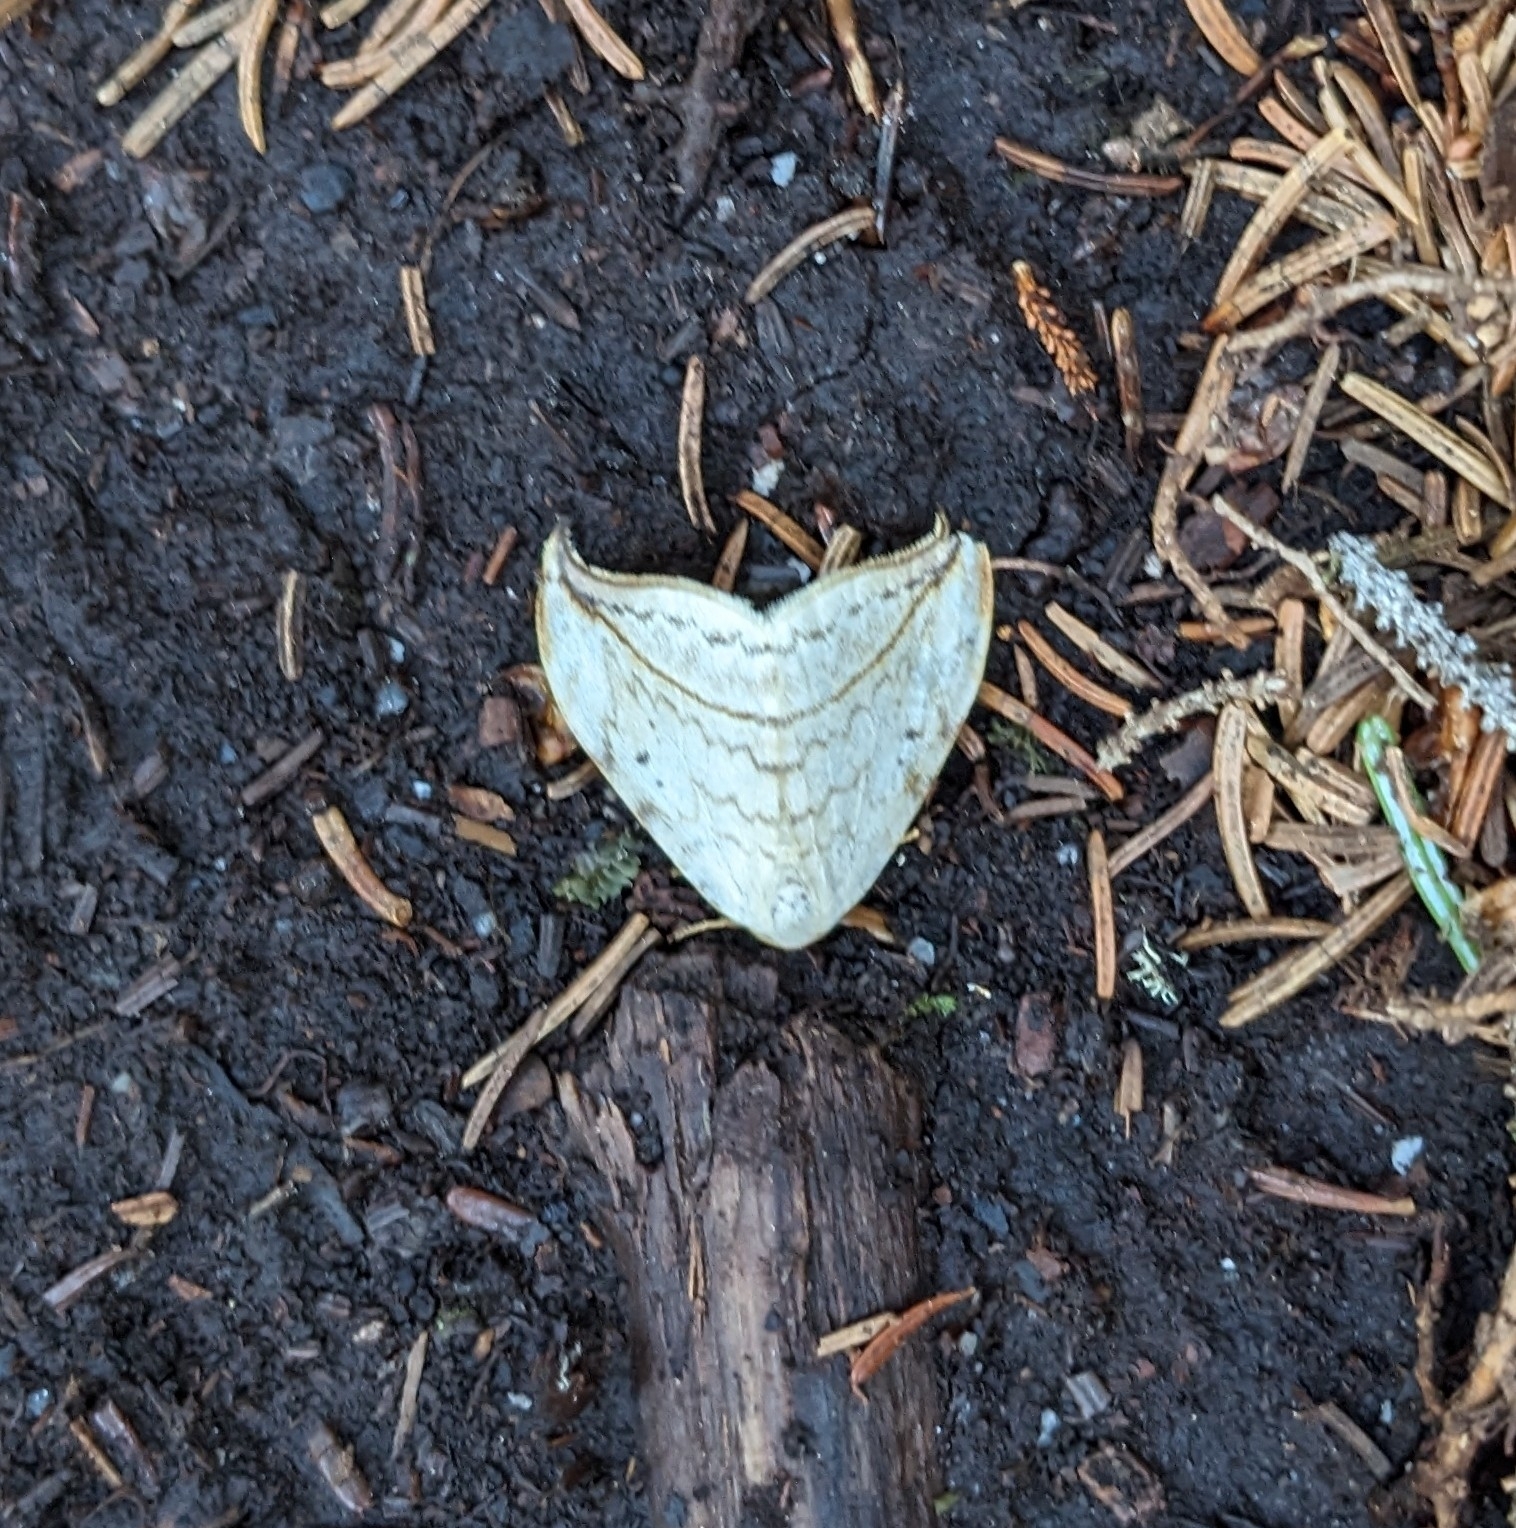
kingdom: Animalia
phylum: Arthropoda
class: Insecta
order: Lepidoptera
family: Drepanidae
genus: Drepana
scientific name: Drepana arcuata
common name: Arched hooktip moth
